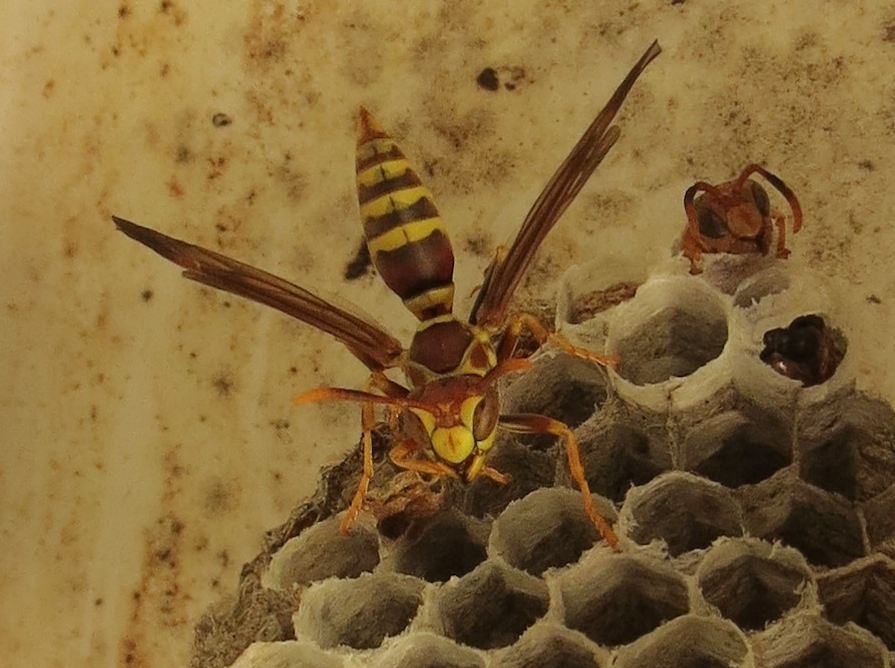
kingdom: Animalia
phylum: Arthropoda
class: Insecta
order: Hymenoptera
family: Eumenidae
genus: Polistes
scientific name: Polistes exclamans
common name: Paper wasp
